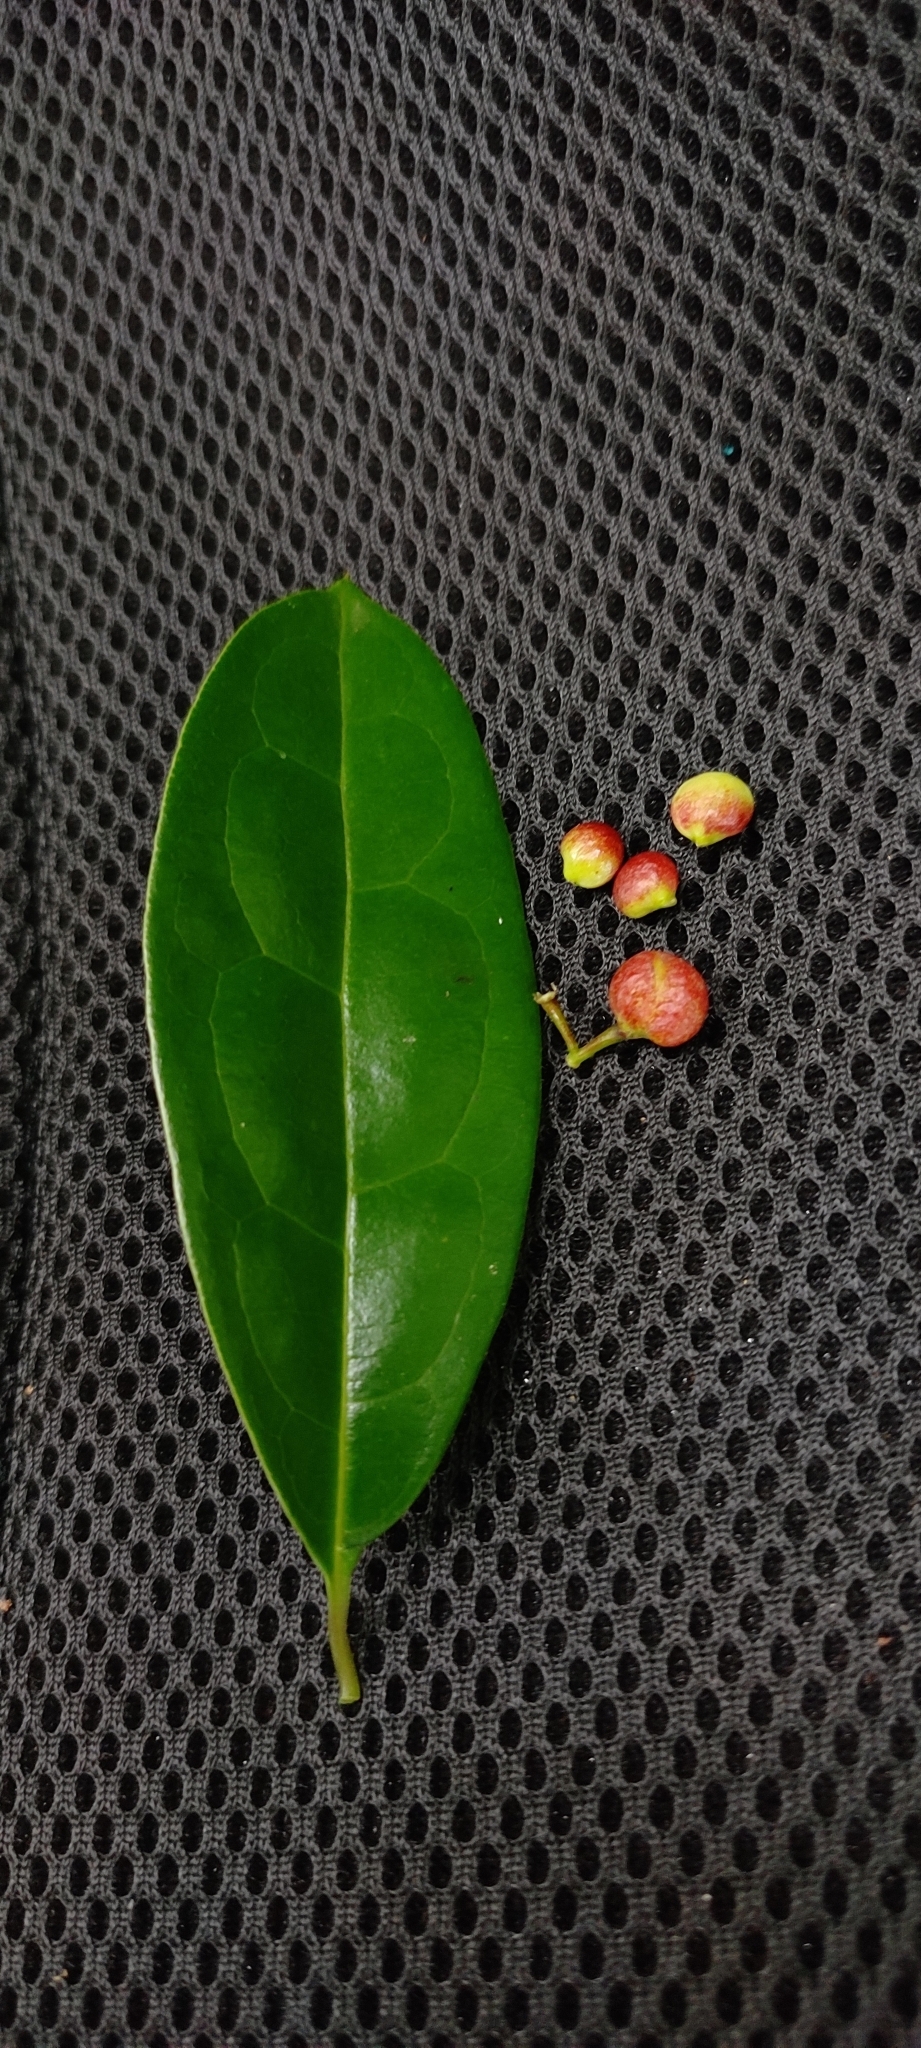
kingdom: Plantae
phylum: Tracheophyta
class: Magnoliopsida
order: Ericales
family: Primulaceae
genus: Embelia
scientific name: Embelia ribes
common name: Vidanga
